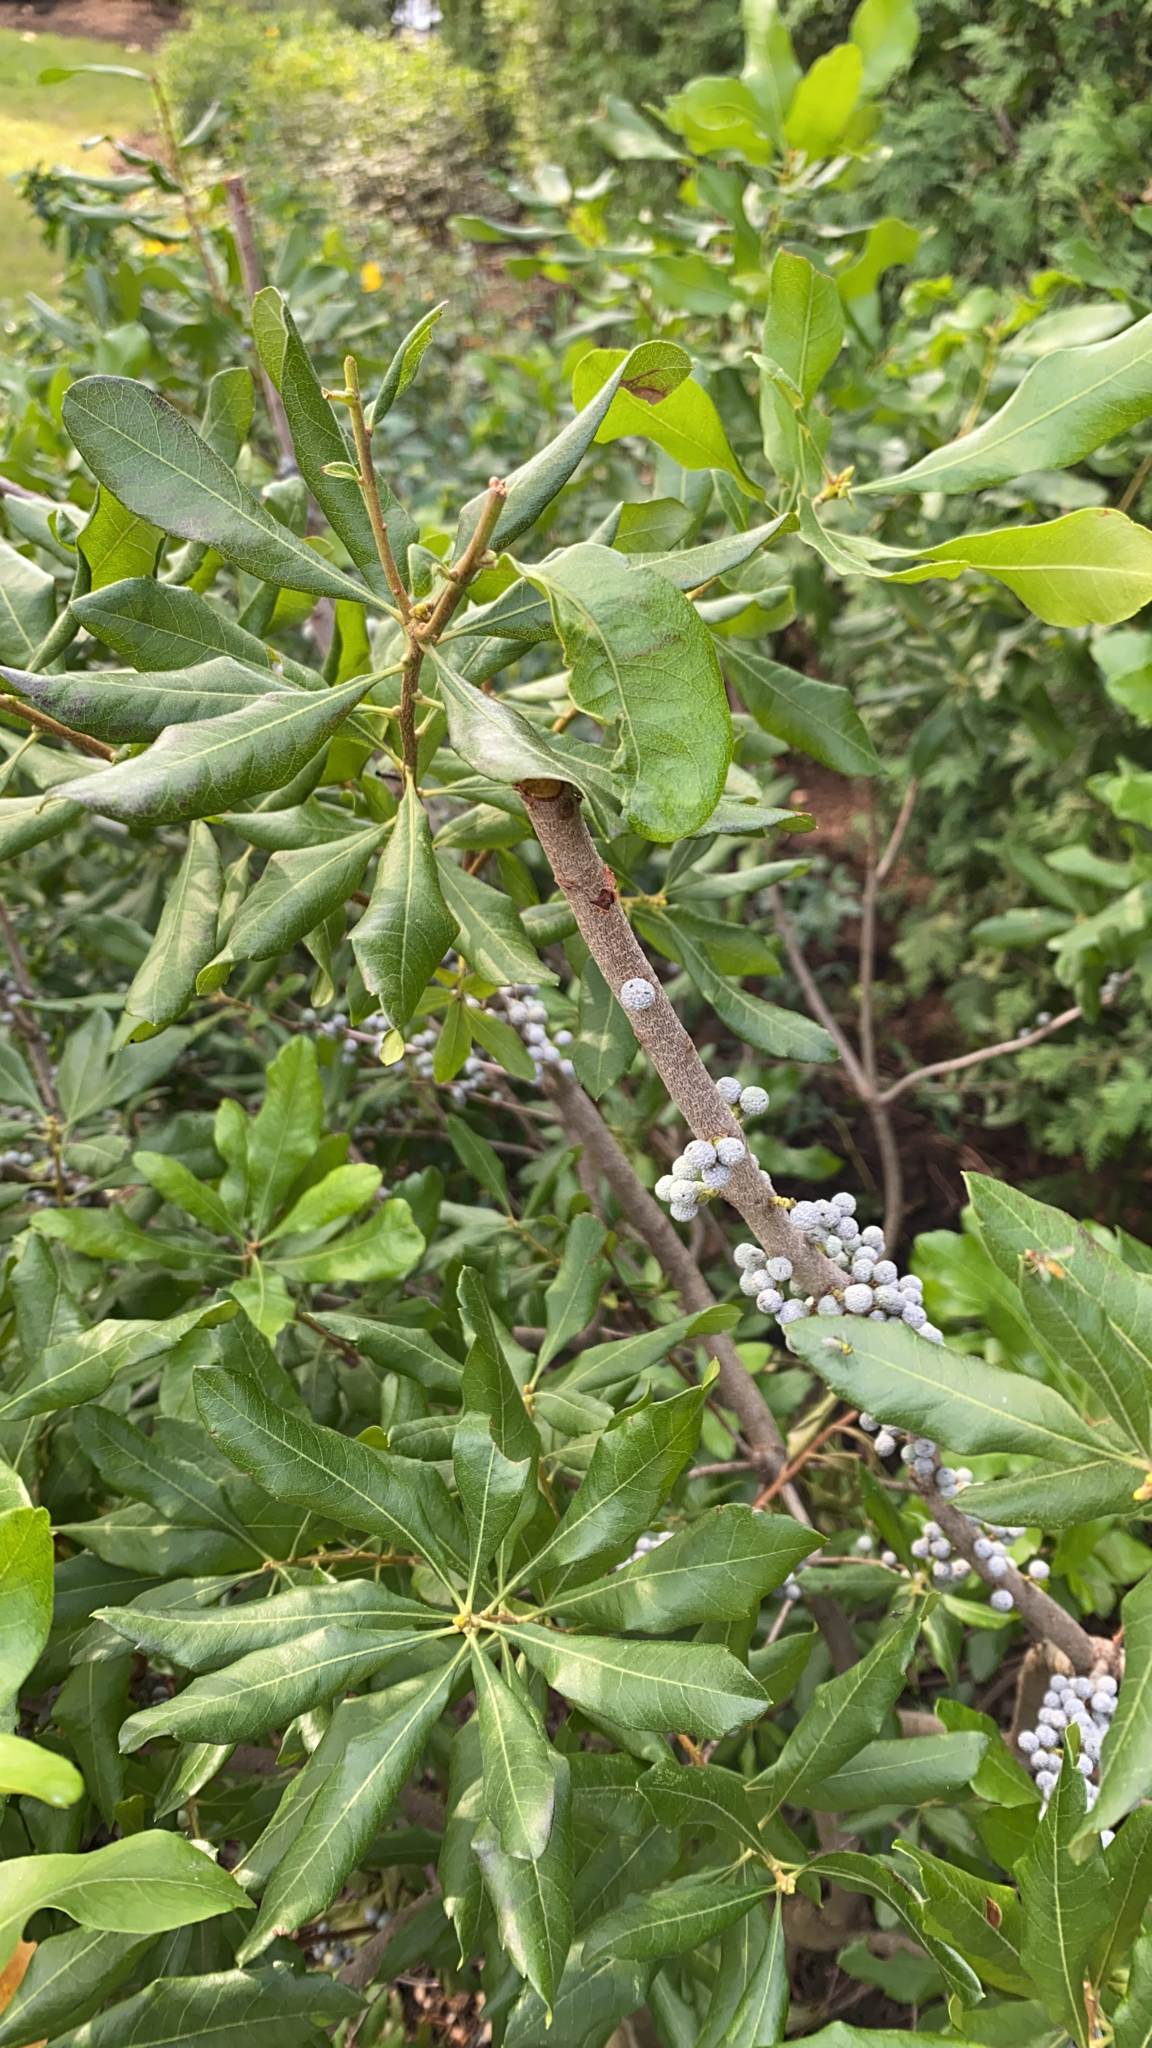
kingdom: Plantae
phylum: Tracheophyta
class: Magnoliopsida
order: Fagales
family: Myricaceae
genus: Morella
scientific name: Morella pensylvanica
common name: Northern bayberry
